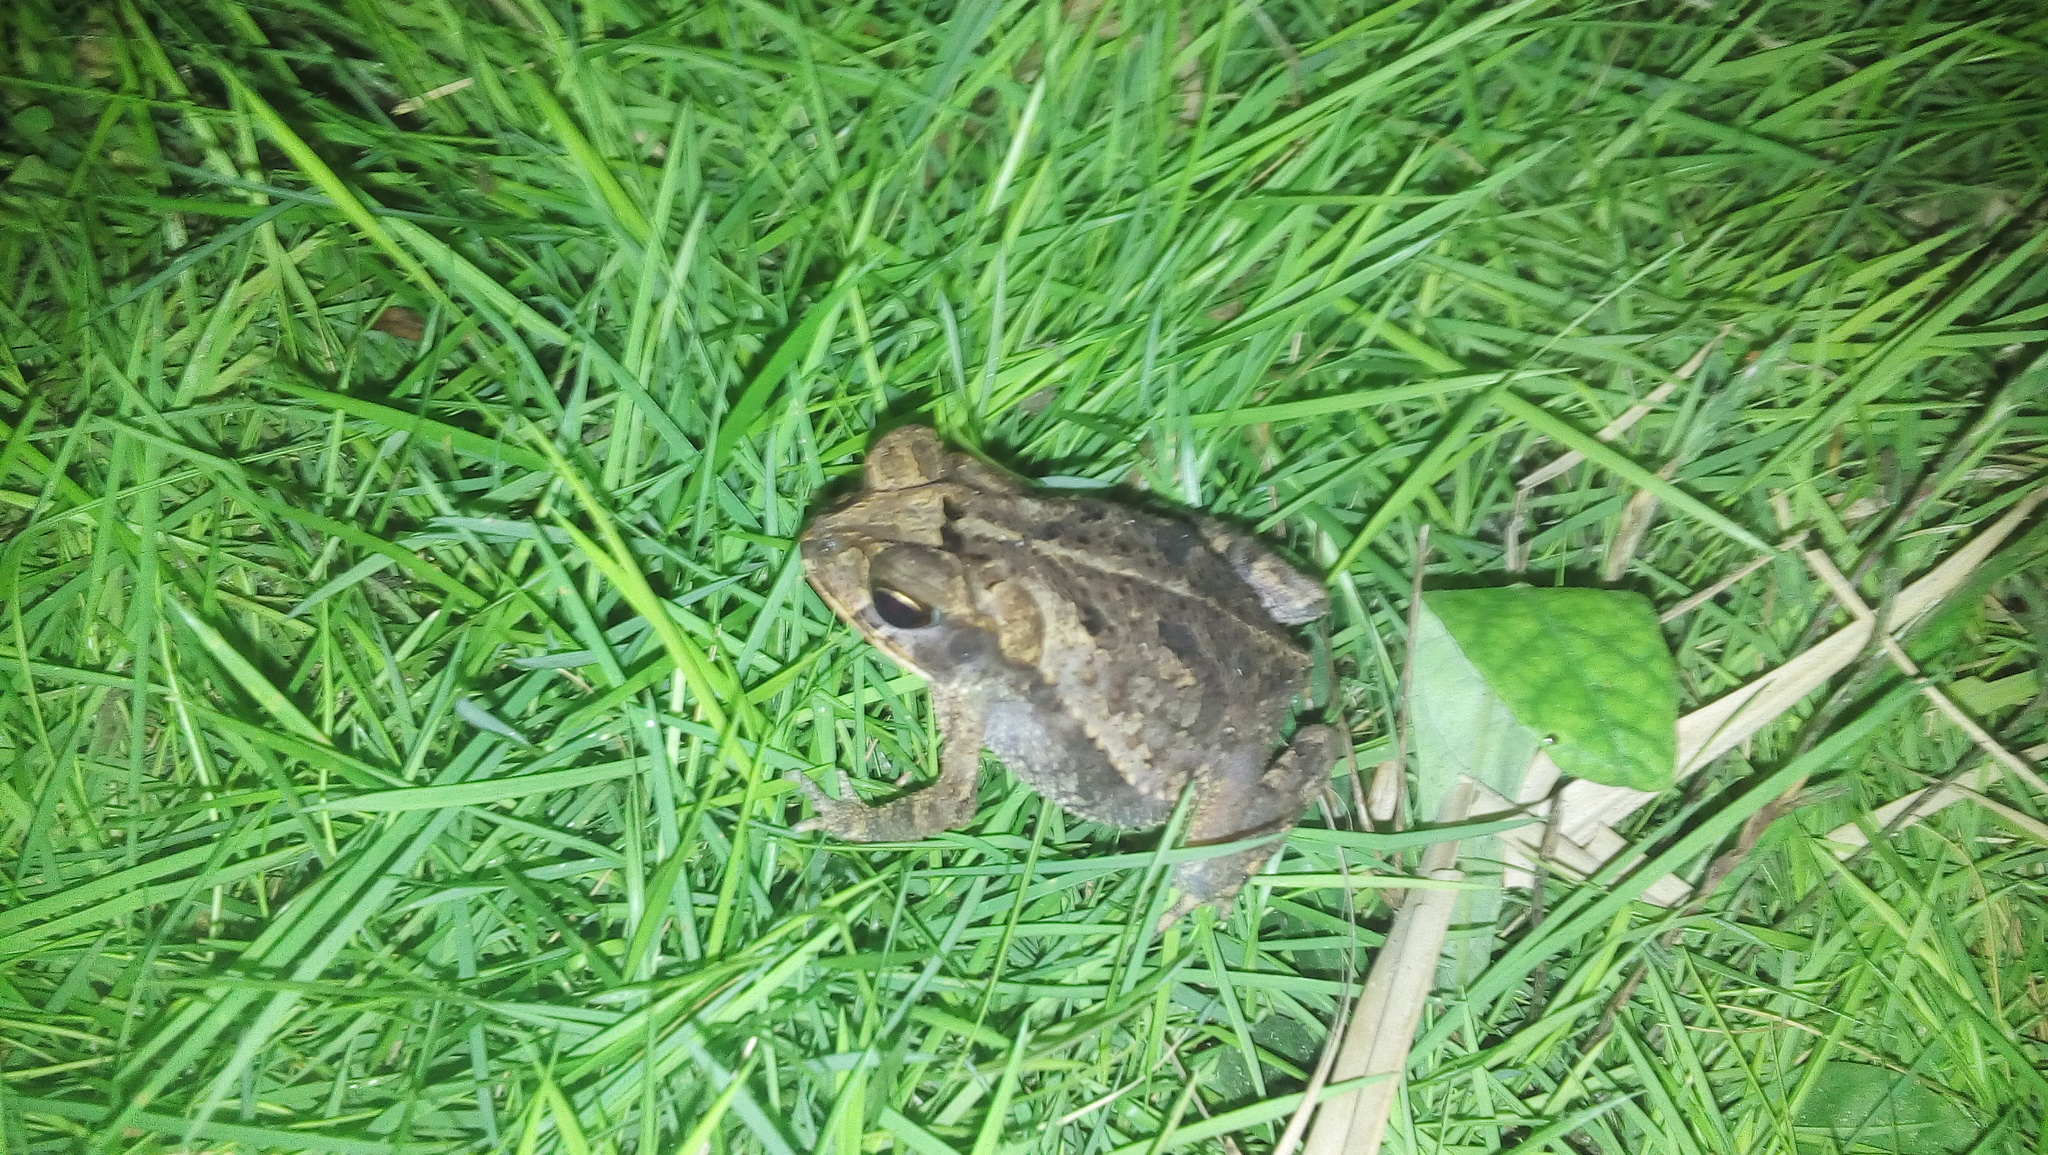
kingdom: Animalia
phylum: Chordata
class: Amphibia
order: Anura
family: Bufonidae
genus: Incilius
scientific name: Incilius valliceps
